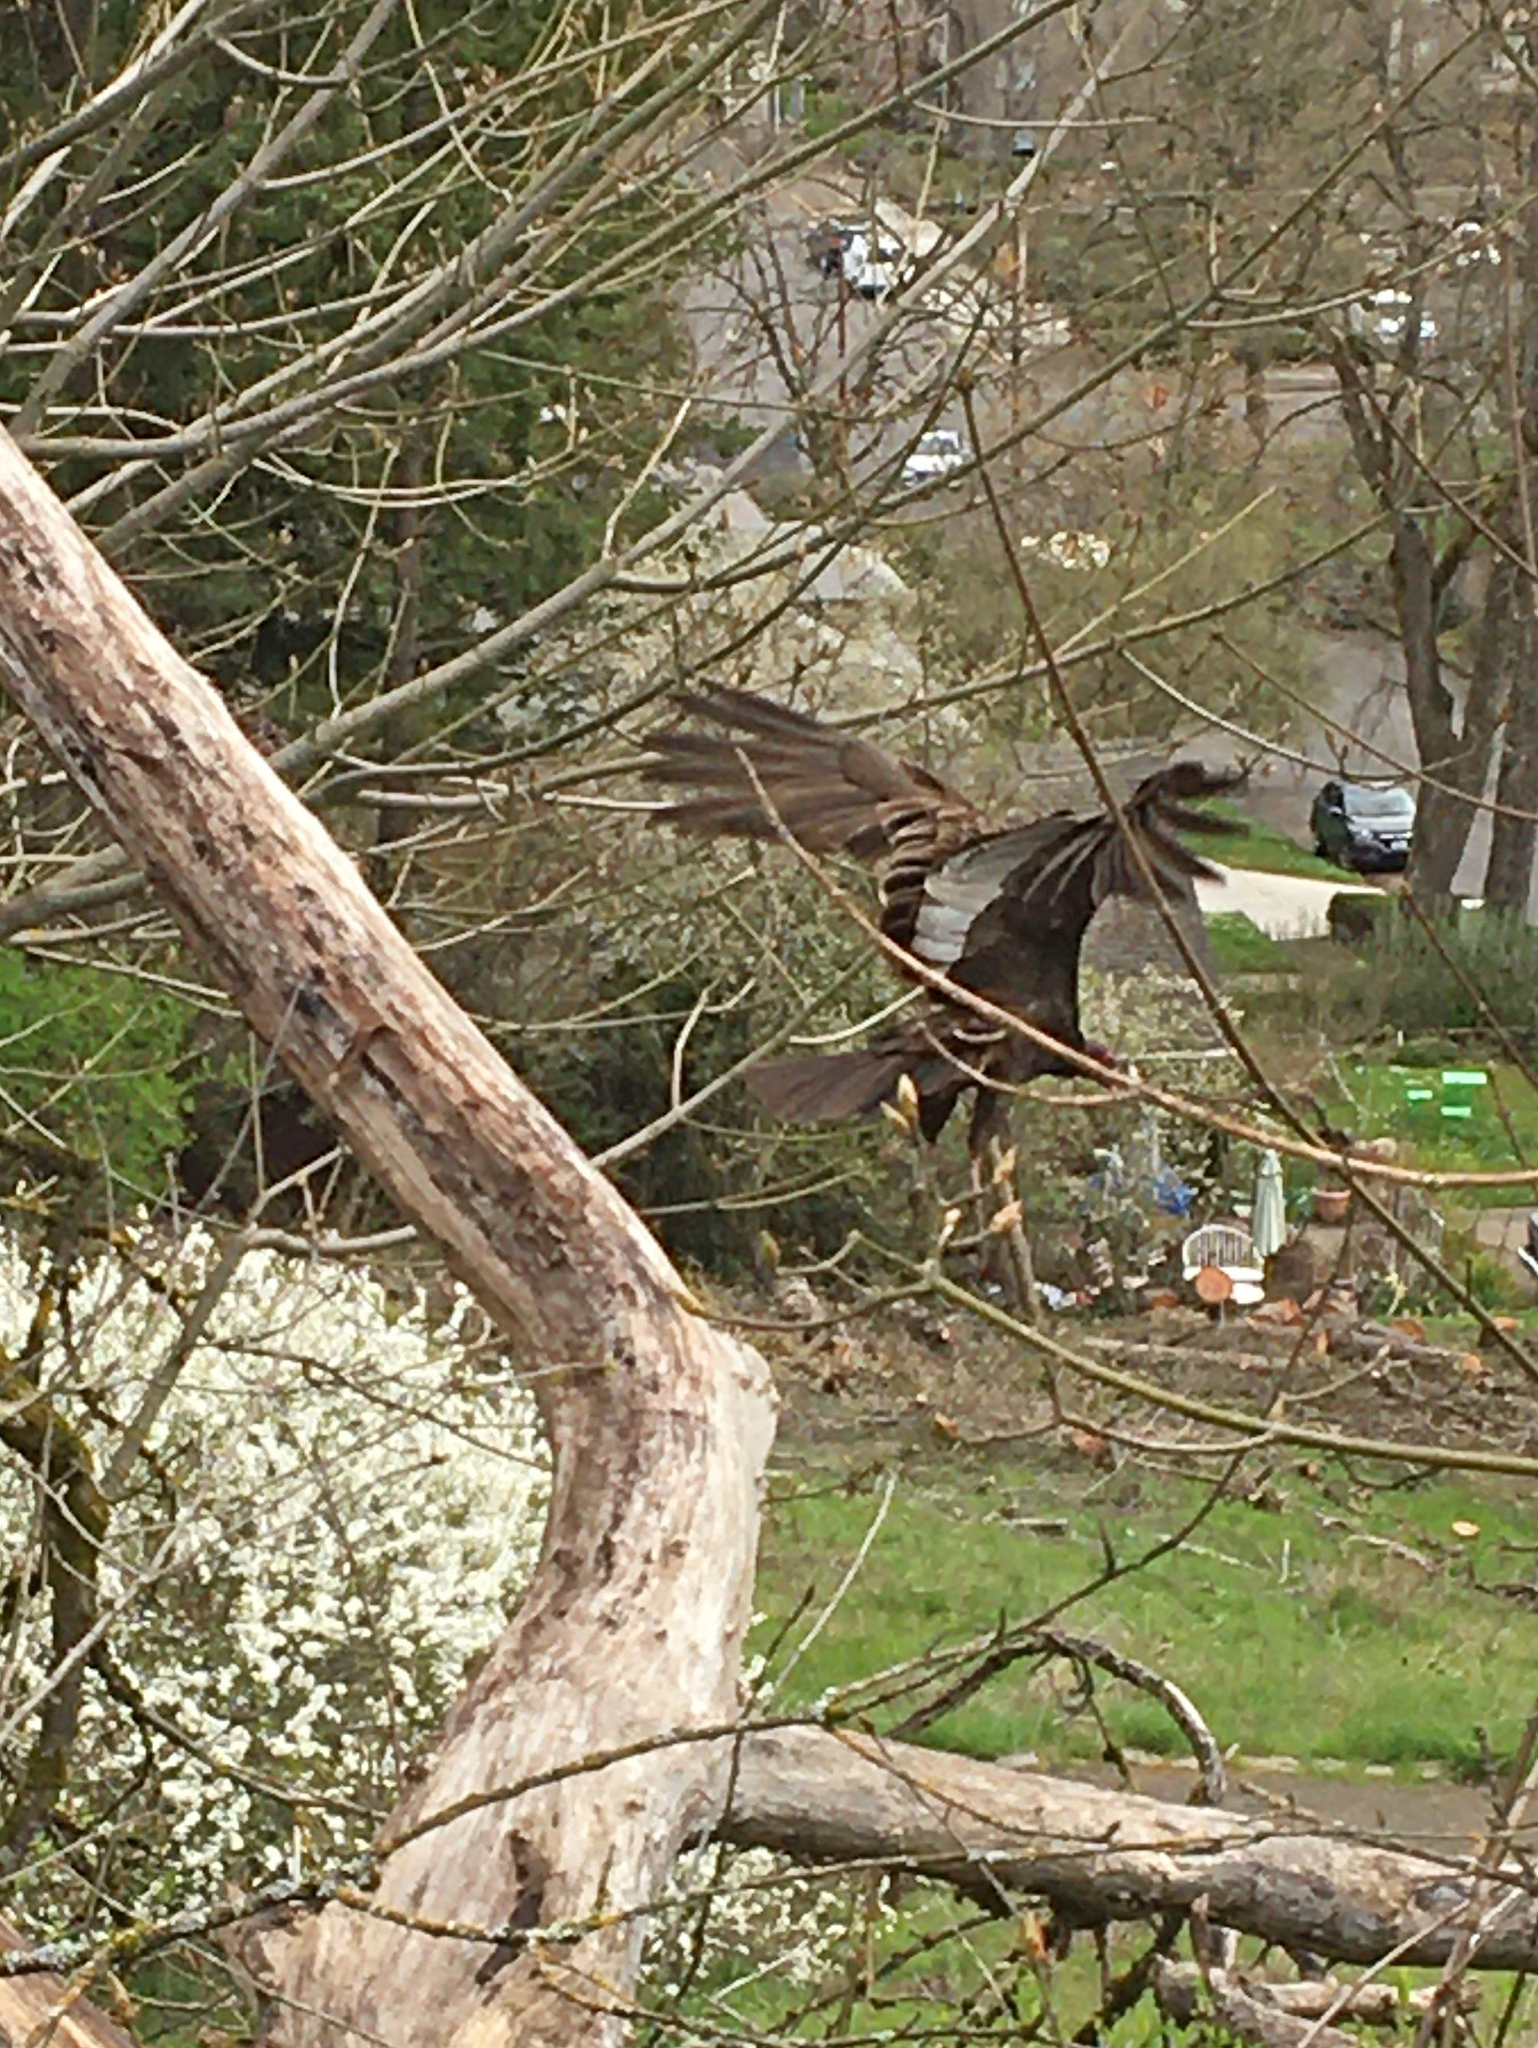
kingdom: Animalia
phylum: Chordata
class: Aves
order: Accipitriformes
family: Cathartidae
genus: Cathartes
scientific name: Cathartes aura
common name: Turkey vulture
